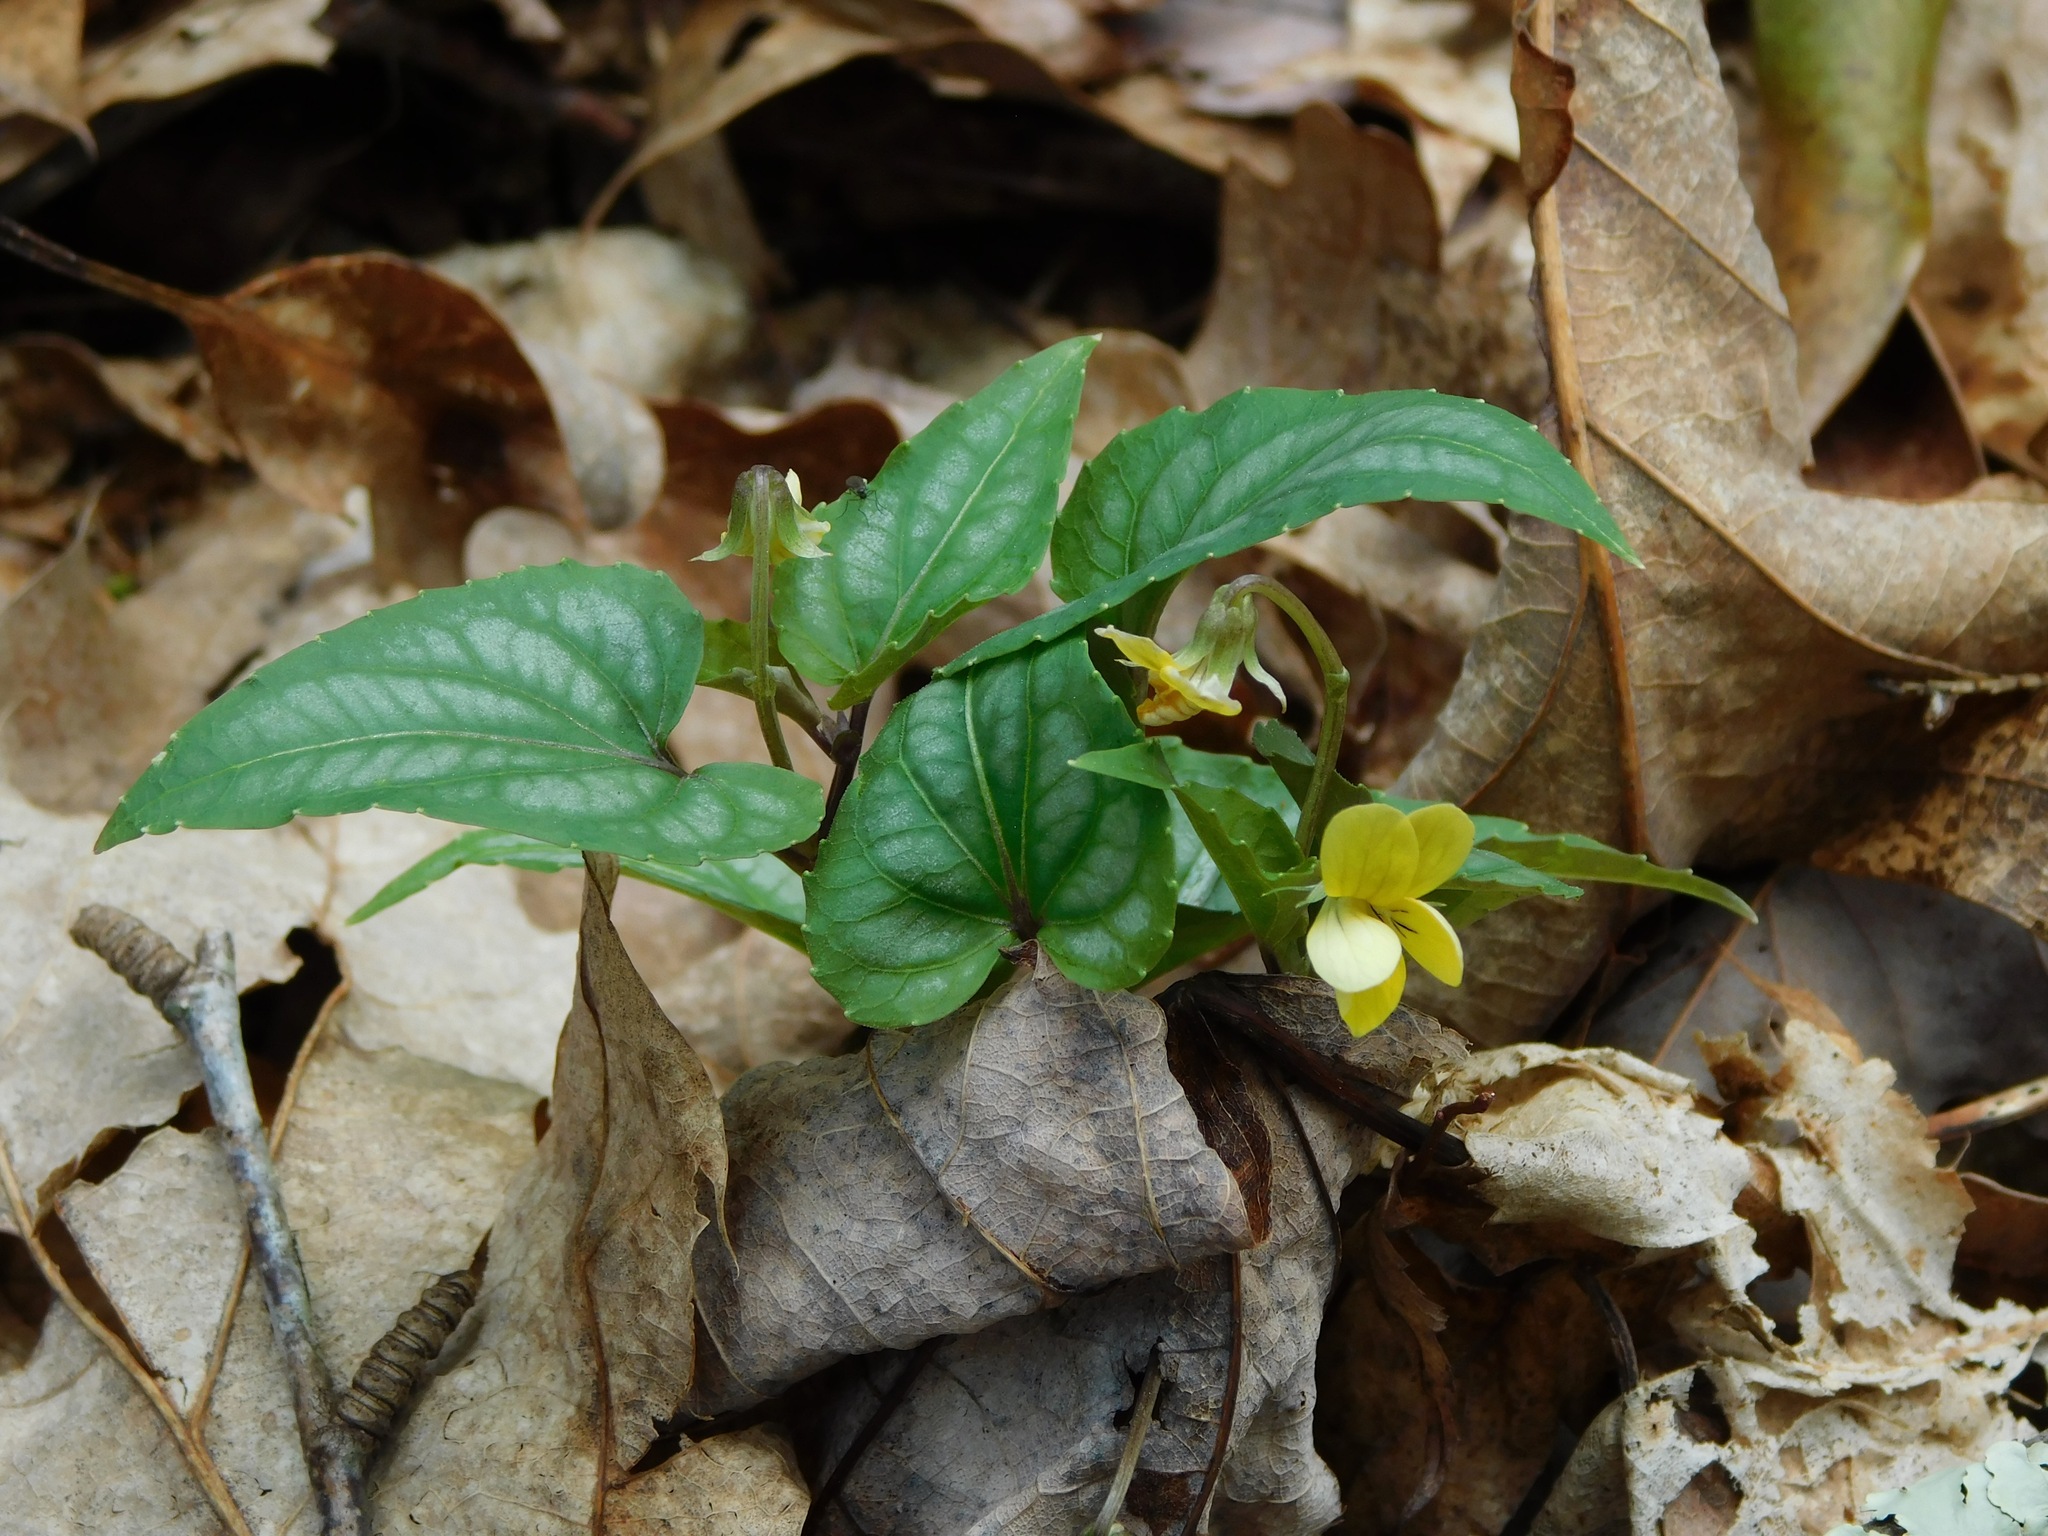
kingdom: Plantae
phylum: Tracheophyta
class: Magnoliopsida
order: Malpighiales
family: Violaceae
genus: Viola
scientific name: Viola hastata
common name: Spear-leaf violet
